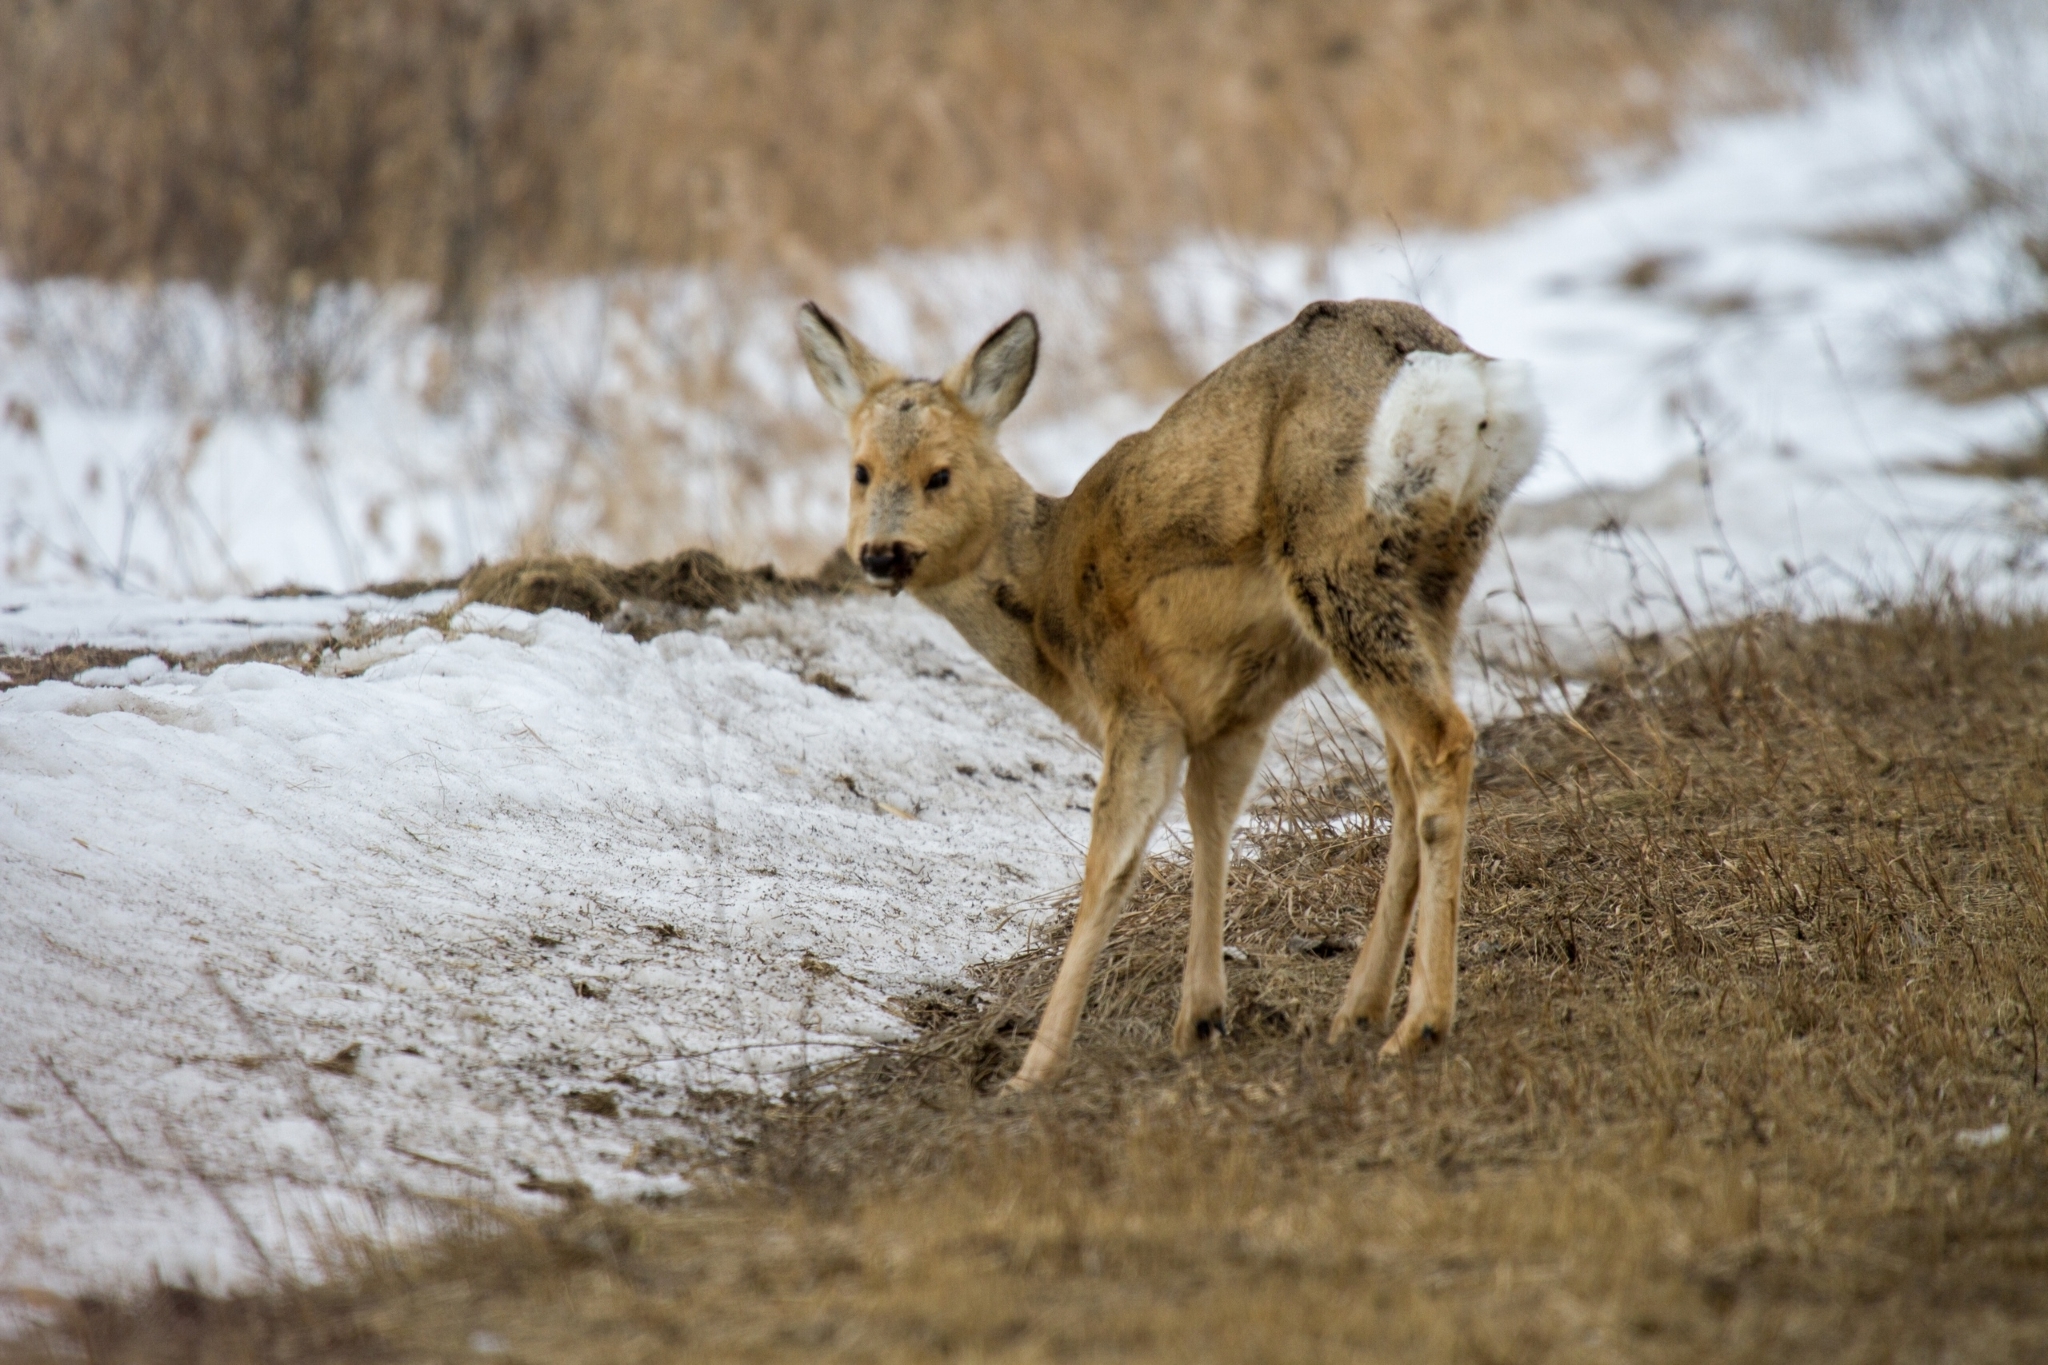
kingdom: Animalia
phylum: Chordata
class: Mammalia
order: Artiodactyla
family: Cervidae
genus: Capreolus
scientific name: Capreolus pygargus
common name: Siberian roe
